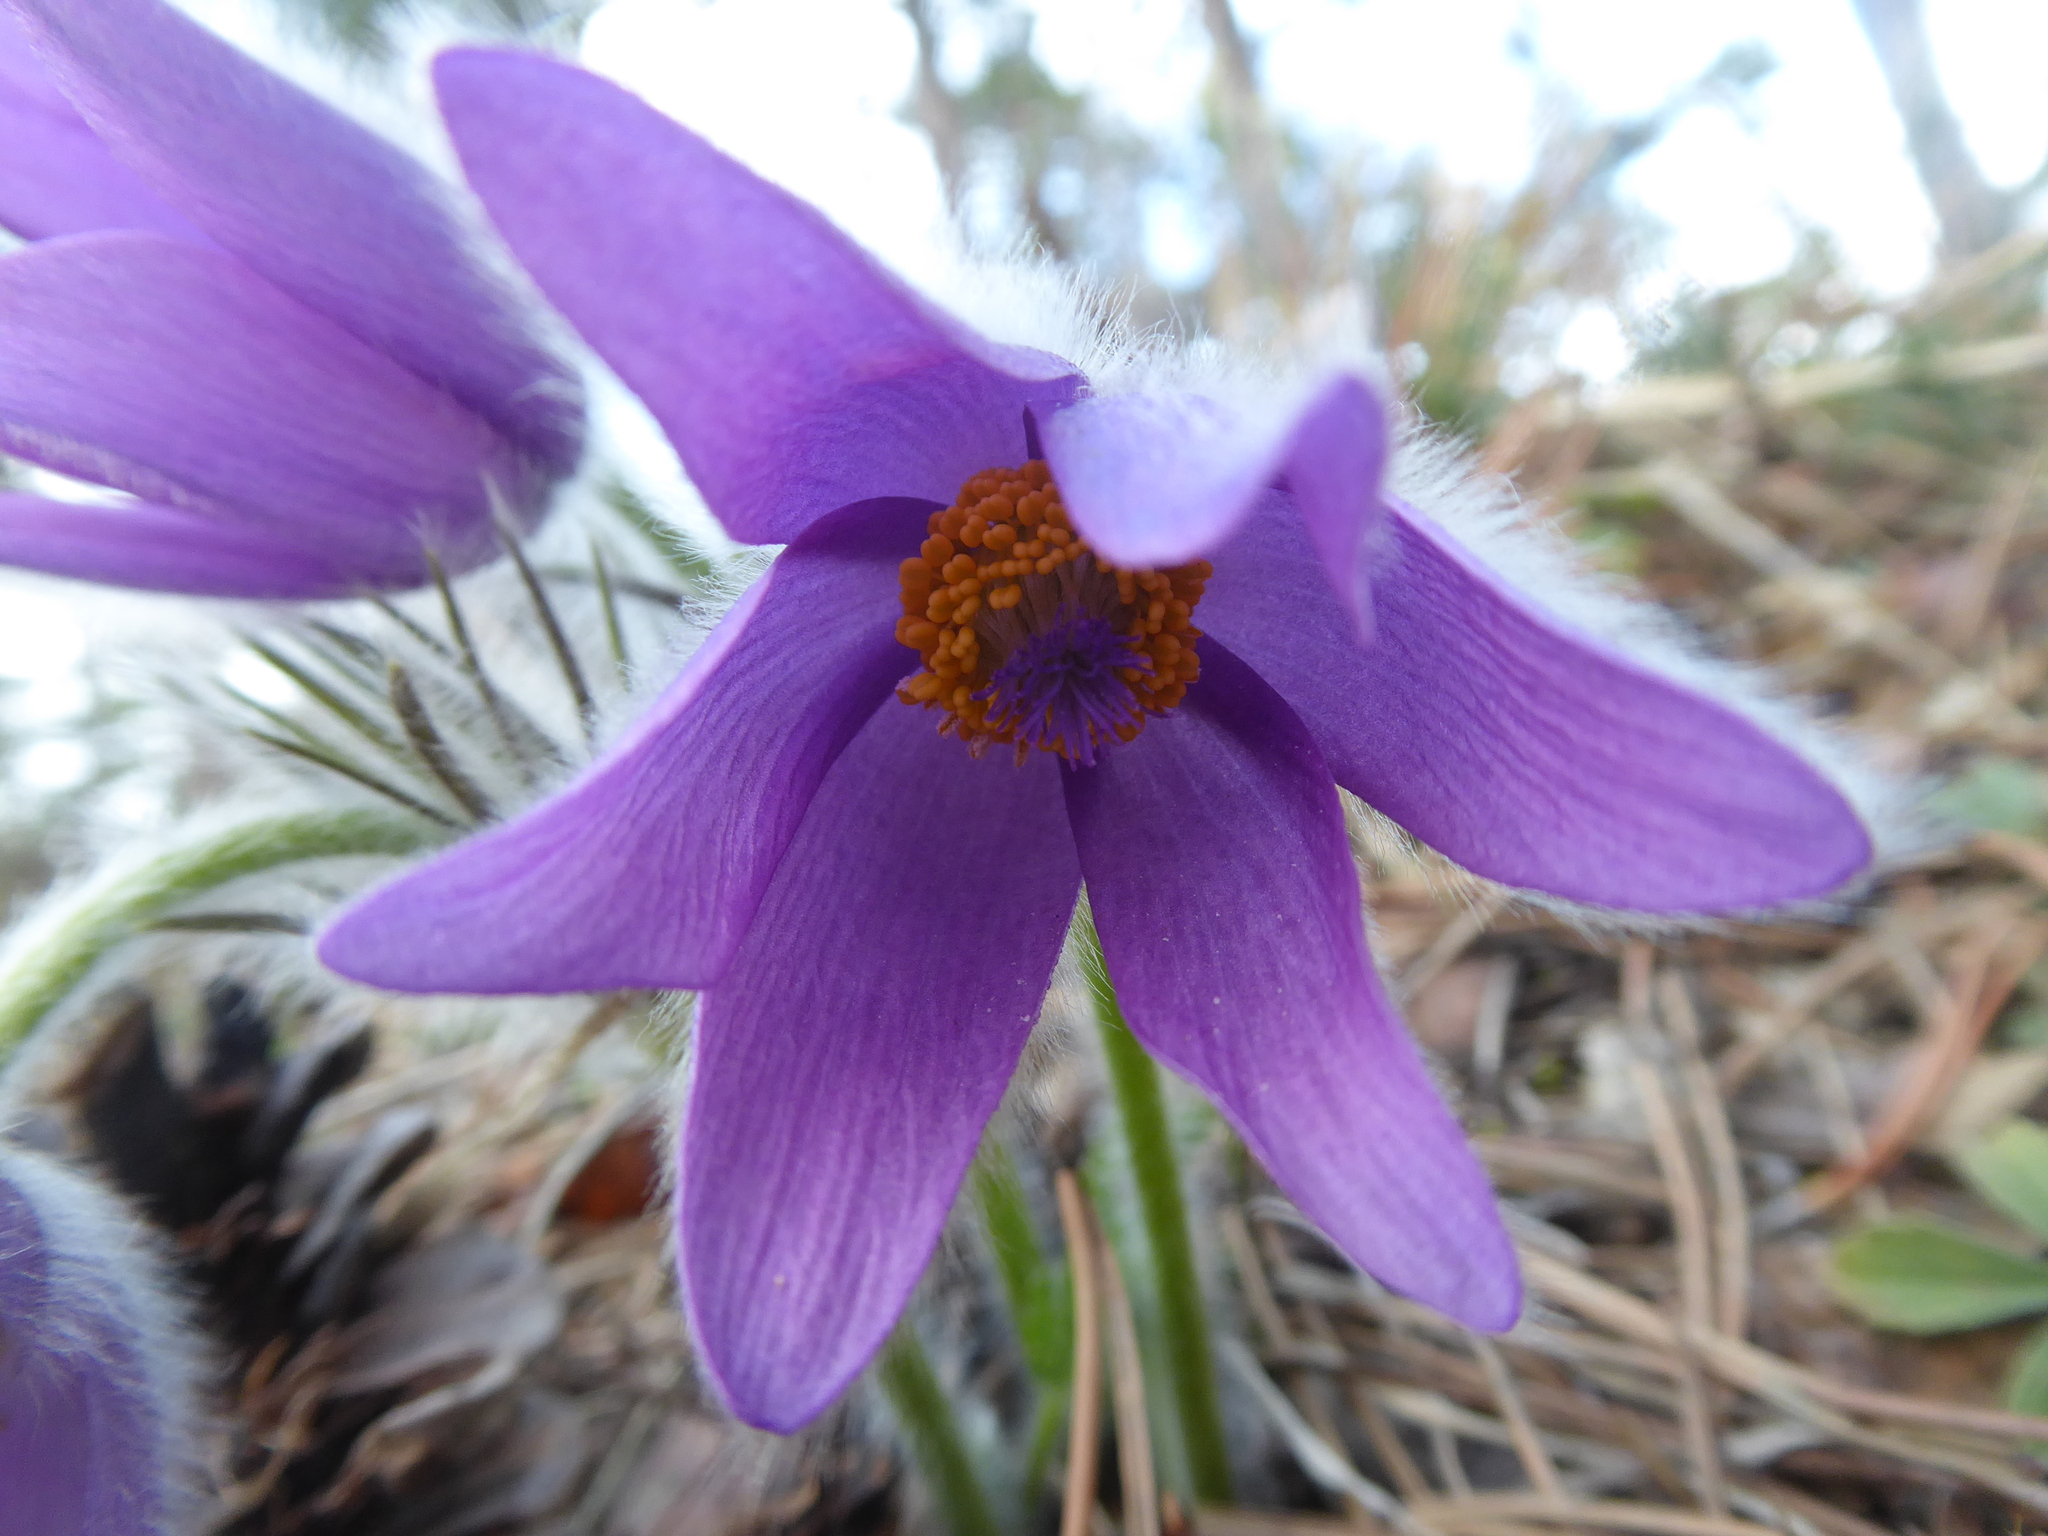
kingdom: Plantae
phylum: Tracheophyta
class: Magnoliopsida
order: Ranunculales
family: Ranunculaceae
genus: Pulsatilla
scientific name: Pulsatilla grandis
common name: Greater pasque flower
